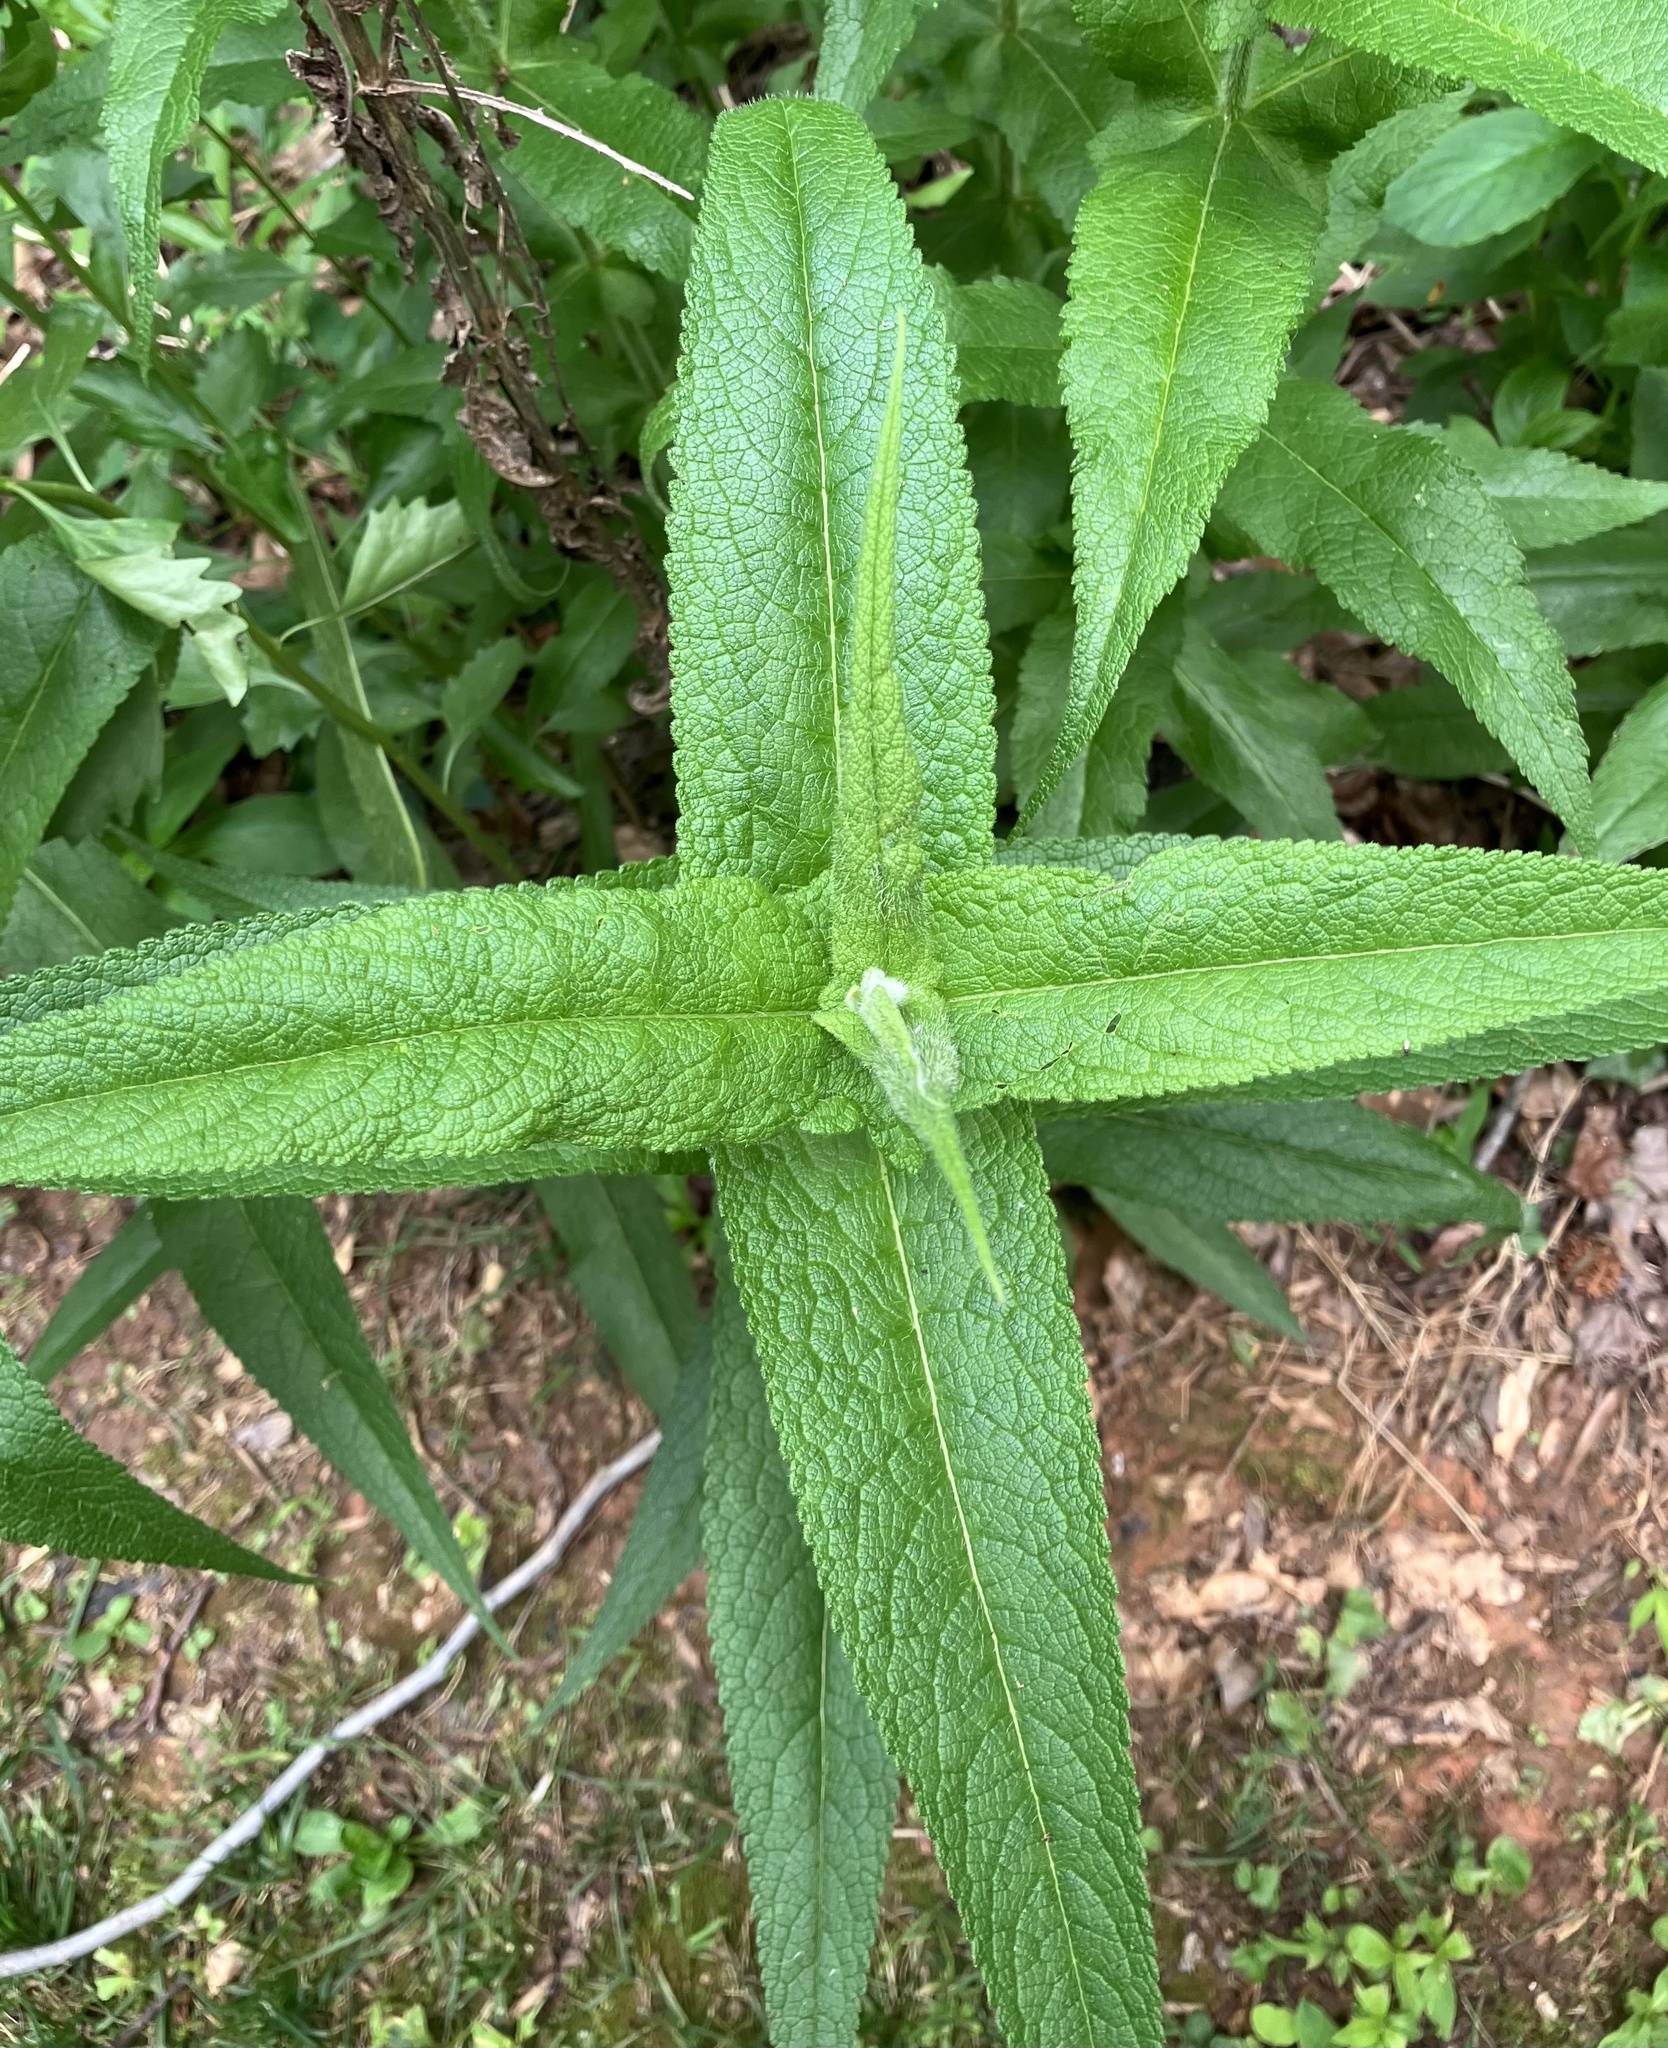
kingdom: Plantae
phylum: Tracheophyta
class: Magnoliopsida
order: Asterales
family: Asteraceae
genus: Eupatorium
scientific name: Eupatorium perfoliatum
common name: Boneset
